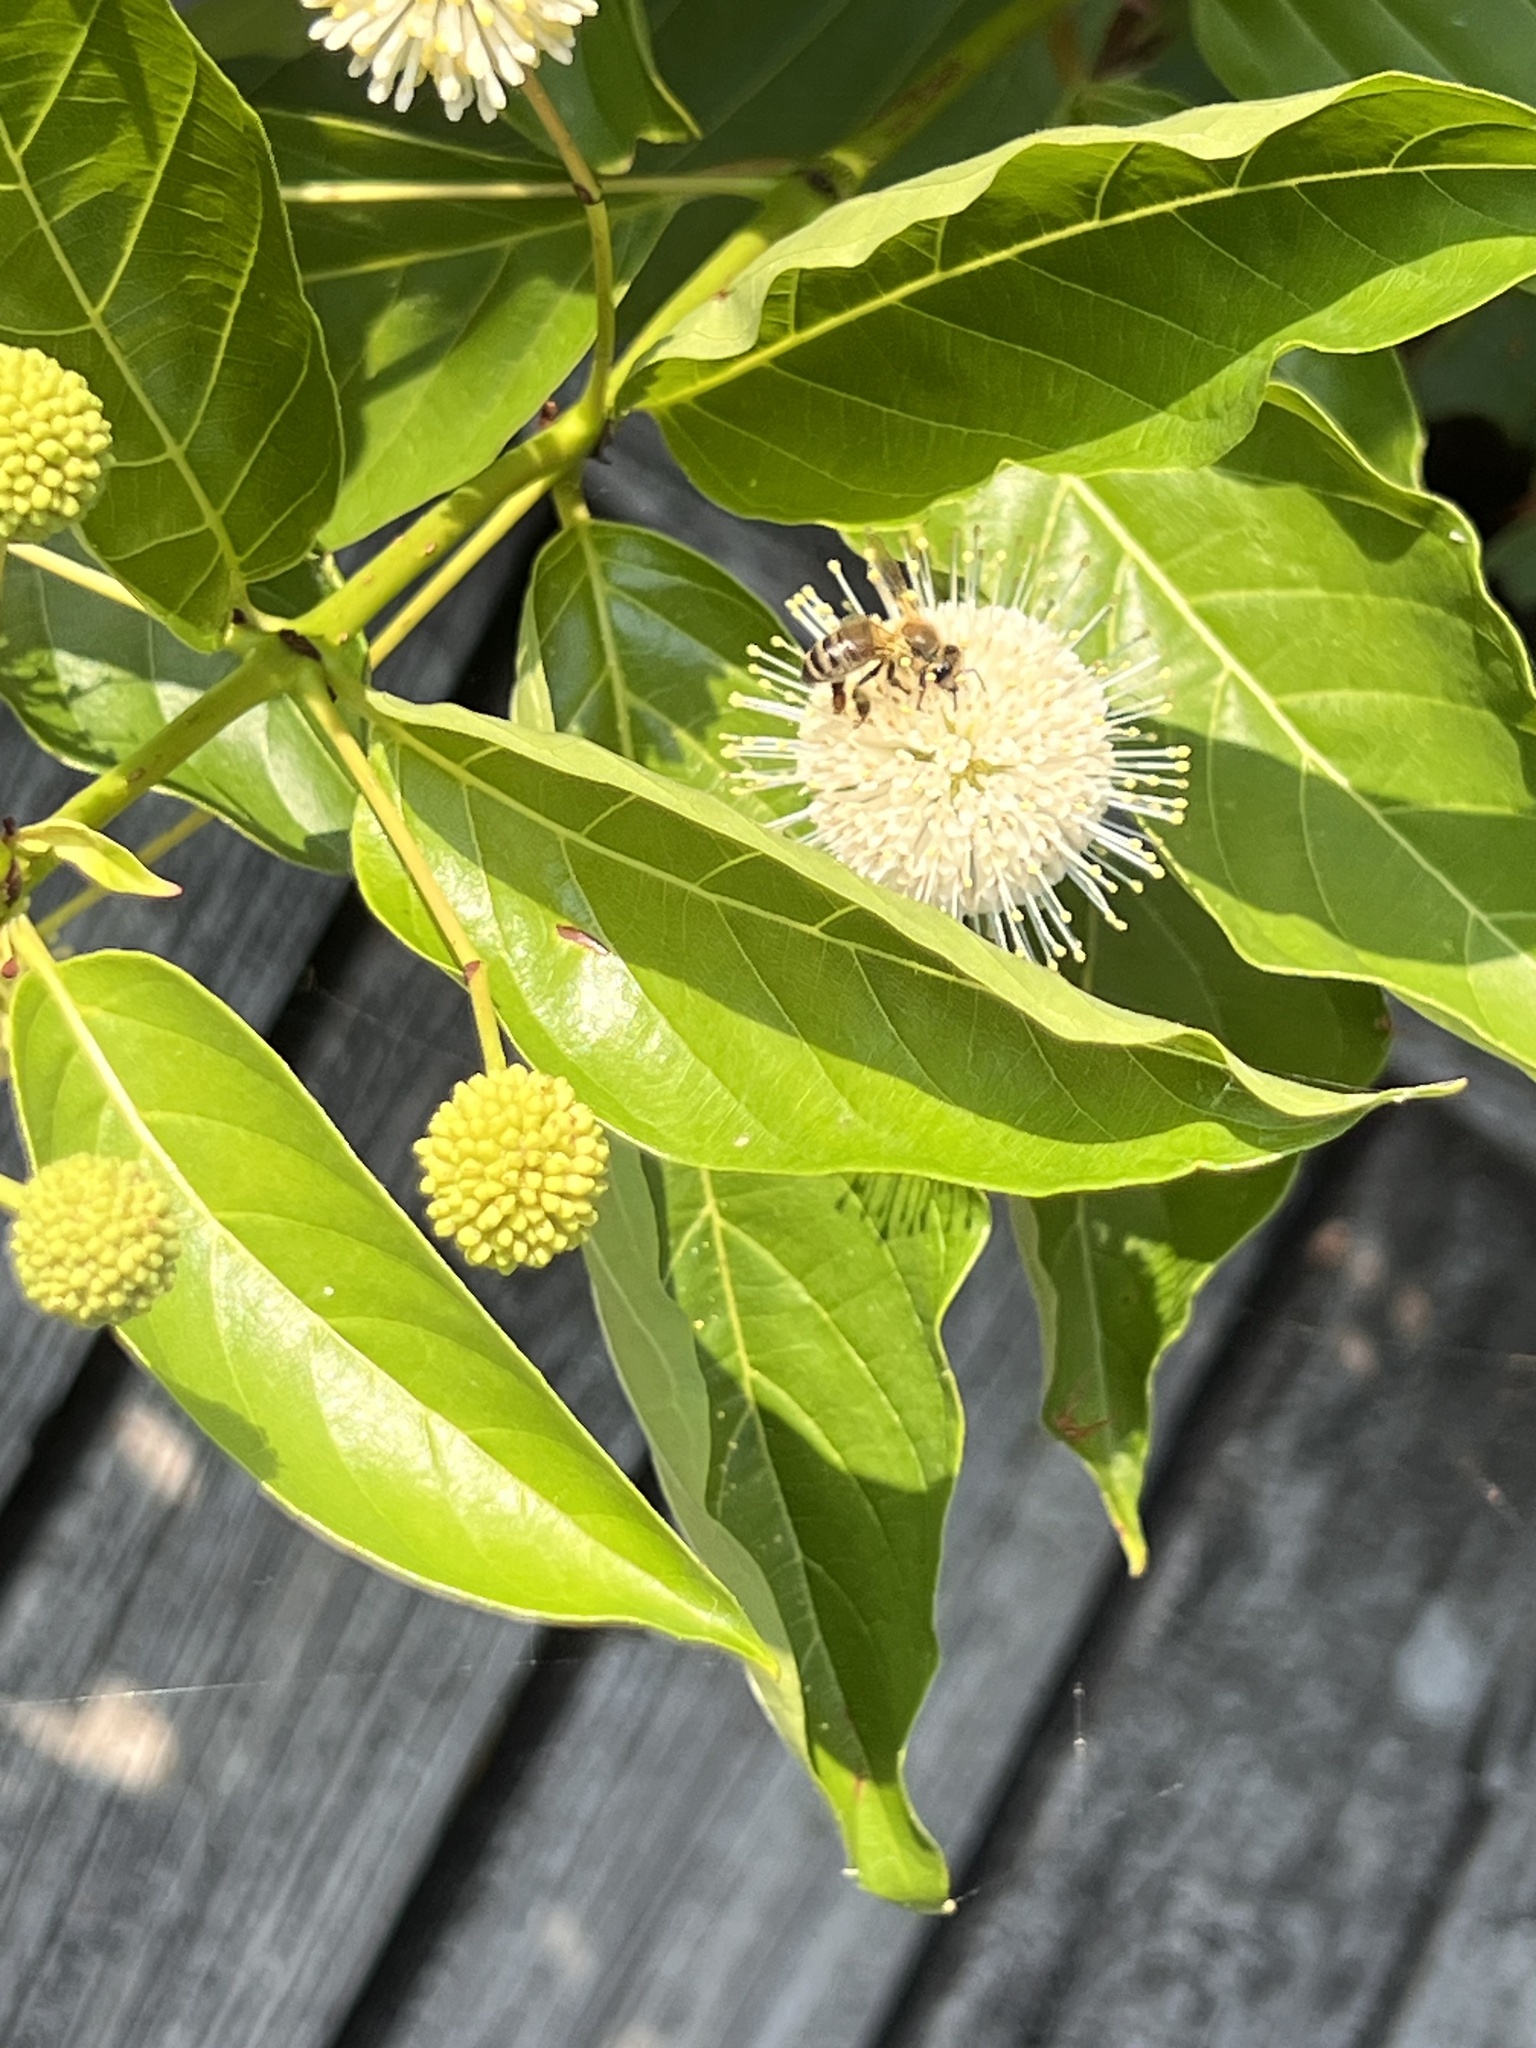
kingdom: Plantae
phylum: Tracheophyta
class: Magnoliopsida
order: Gentianales
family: Rubiaceae
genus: Cephalanthus
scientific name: Cephalanthus occidentalis
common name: Button-willow
